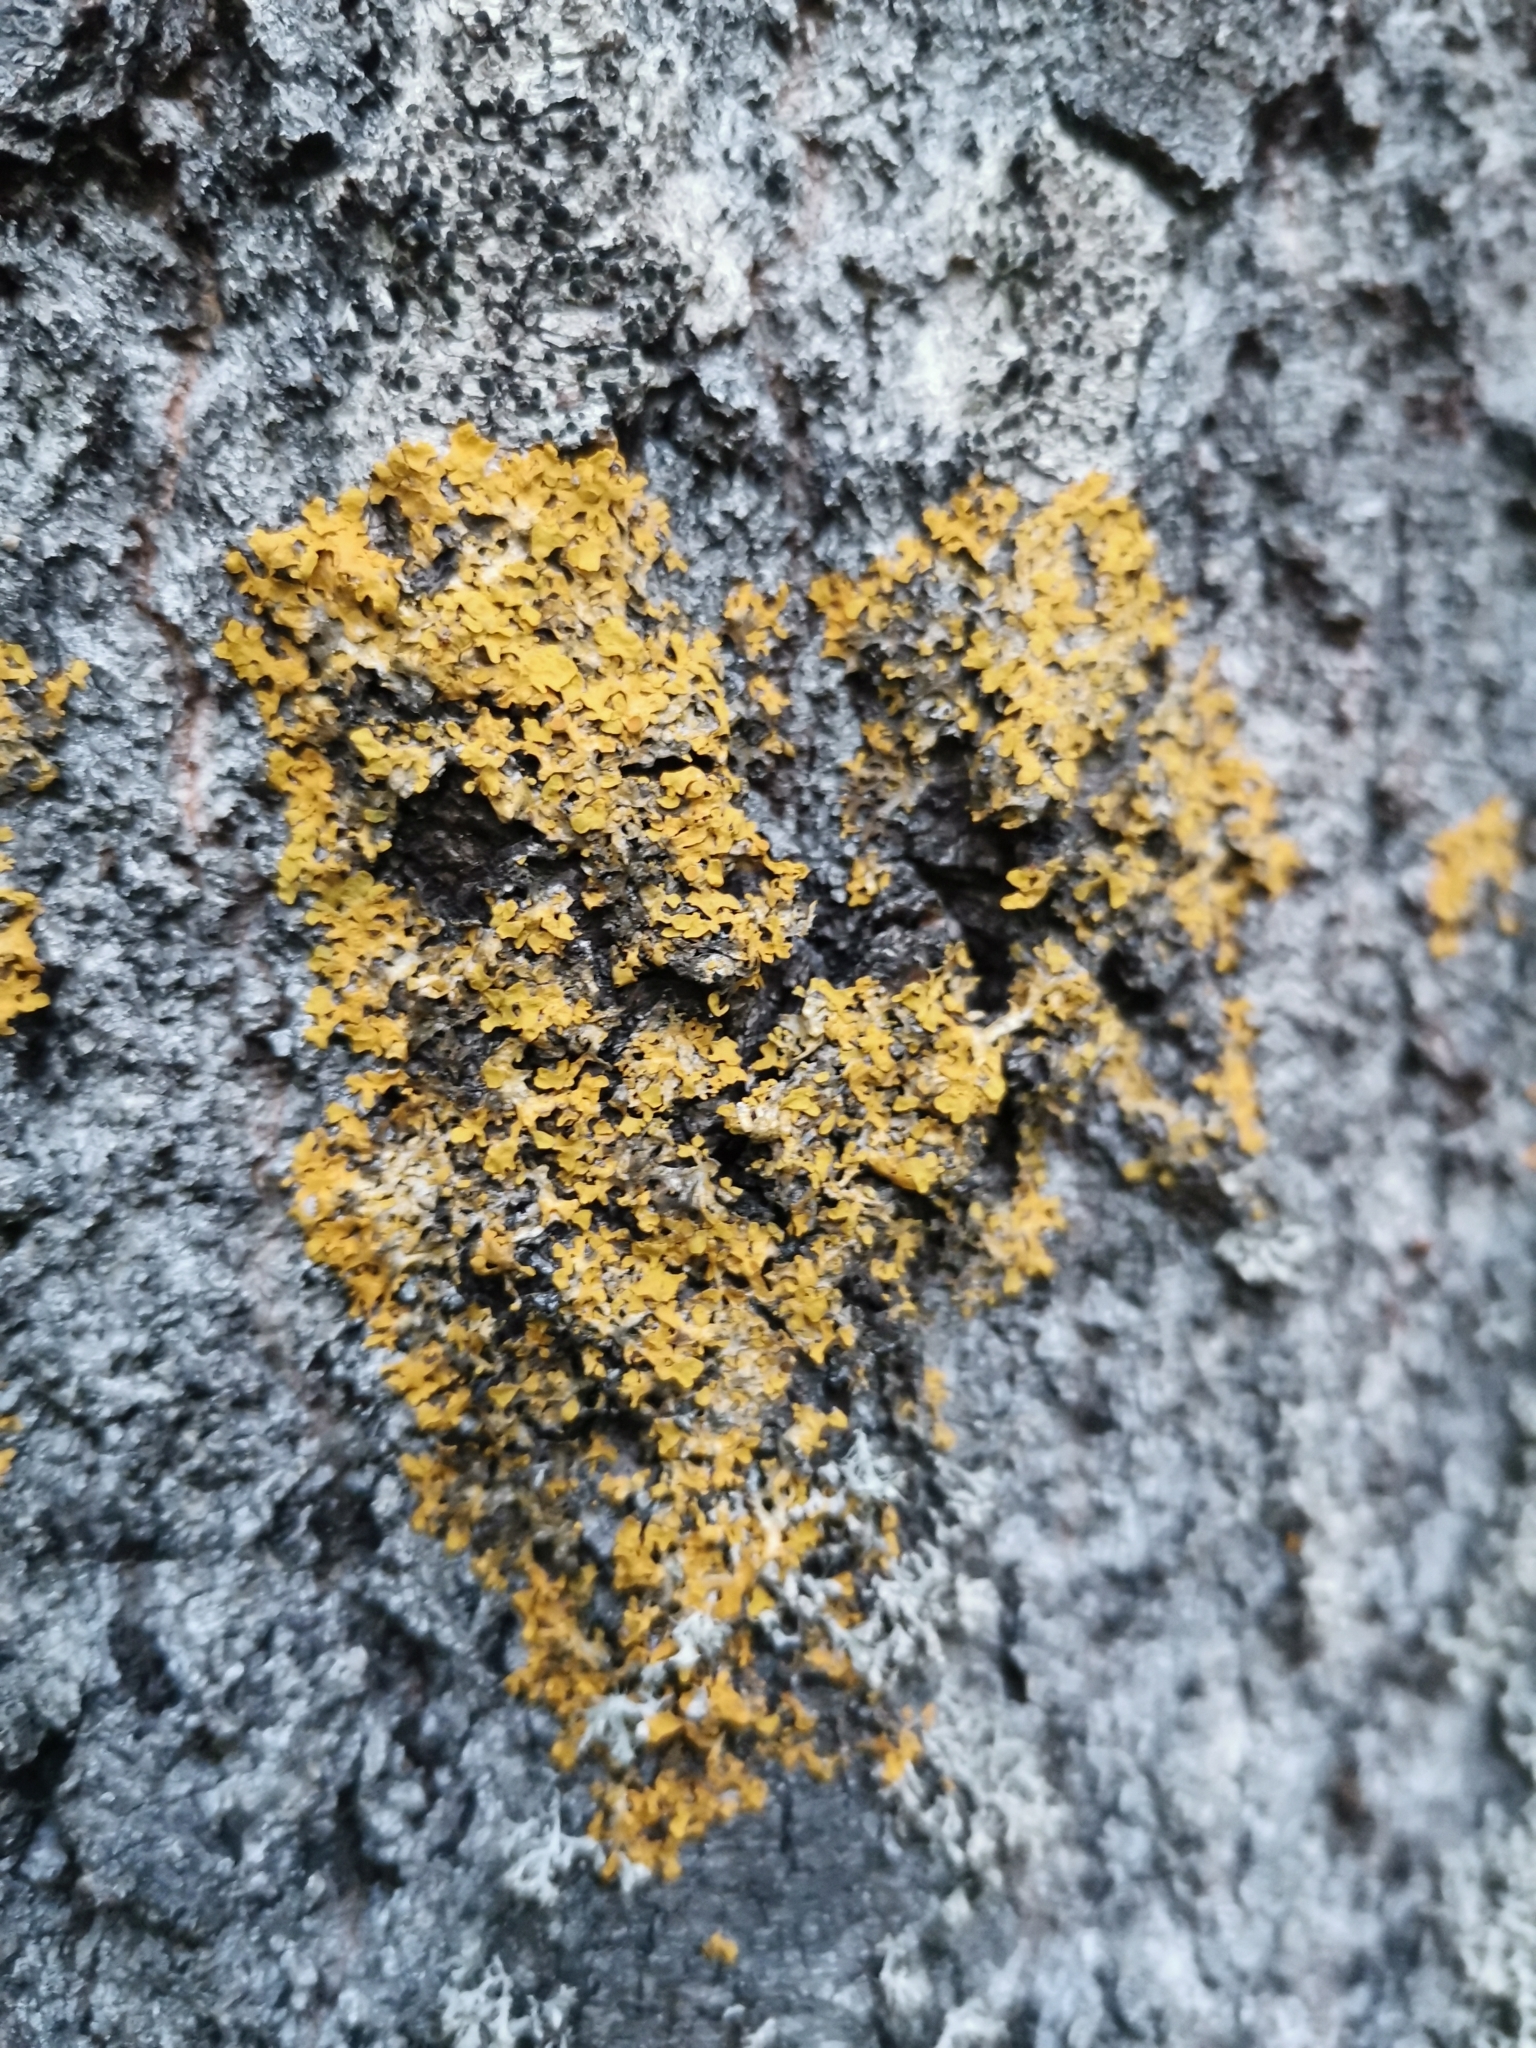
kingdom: Fungi
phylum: Ascomycota
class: Lecanoromycetes
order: Teloschistales
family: Teloschistaceae
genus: Xanthoria
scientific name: Xanthoria parietina
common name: Common orange lichen
